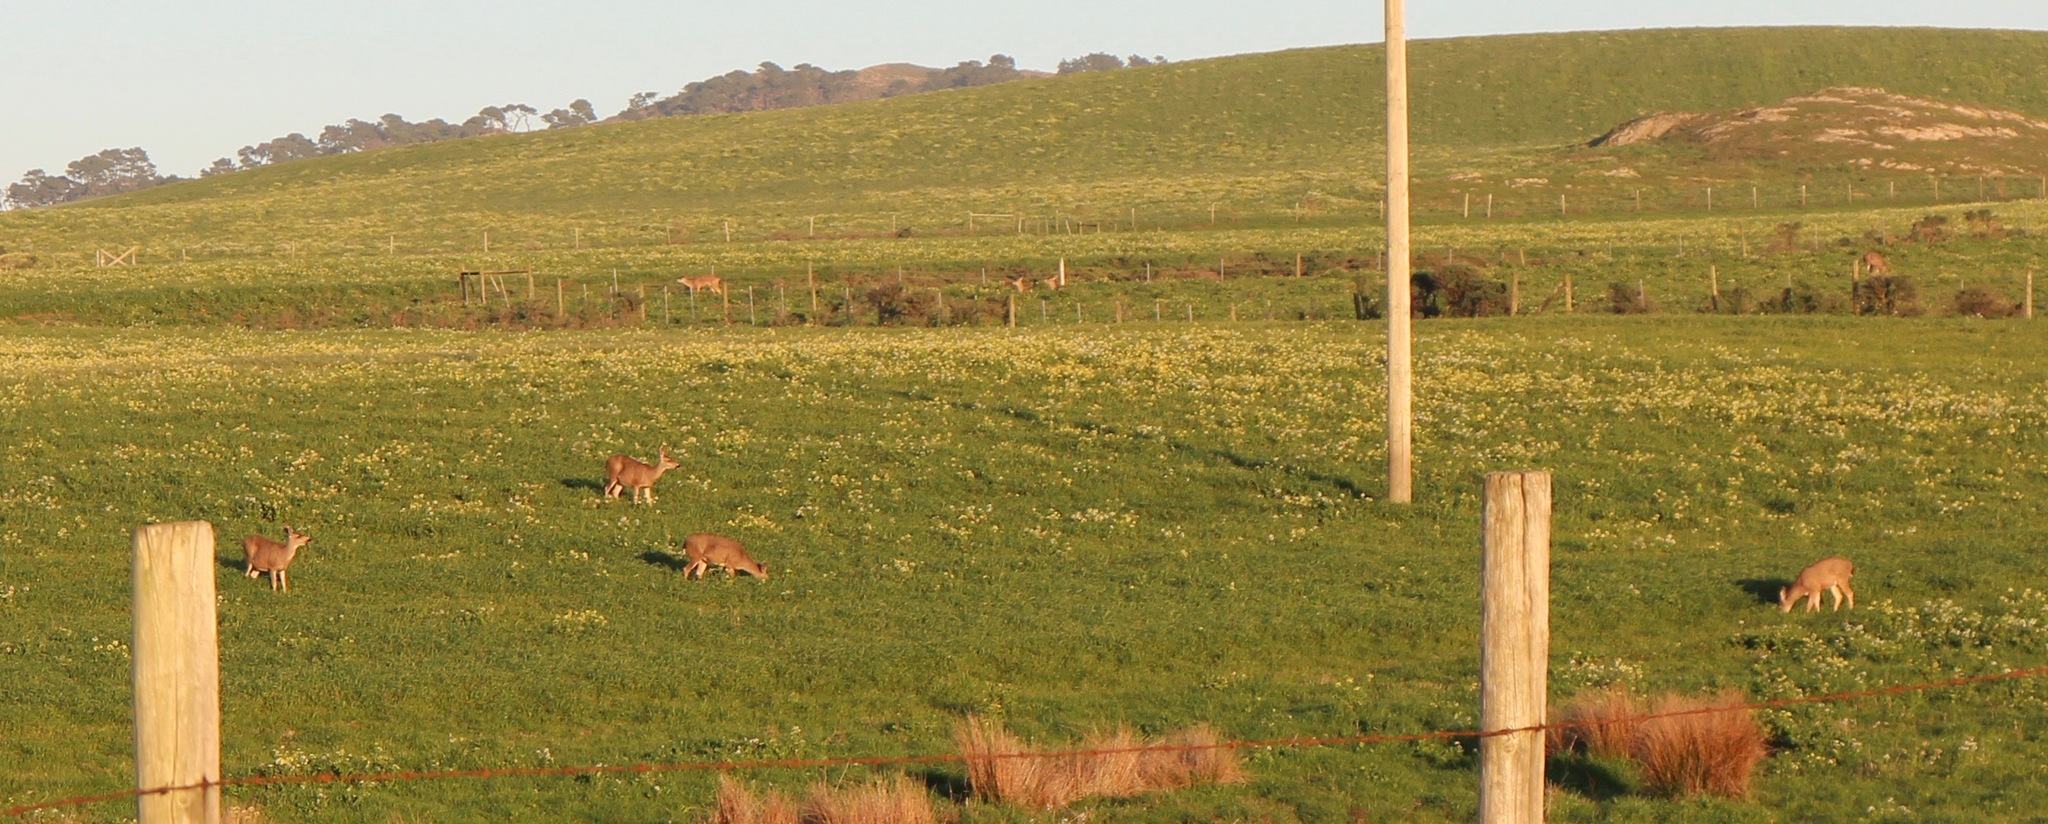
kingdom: Animalia
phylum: Chordata
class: Mammalia
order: Artiodactyla
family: Cervidae
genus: Odocoileus
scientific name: Odocoileus hemionus
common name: Mule deer
